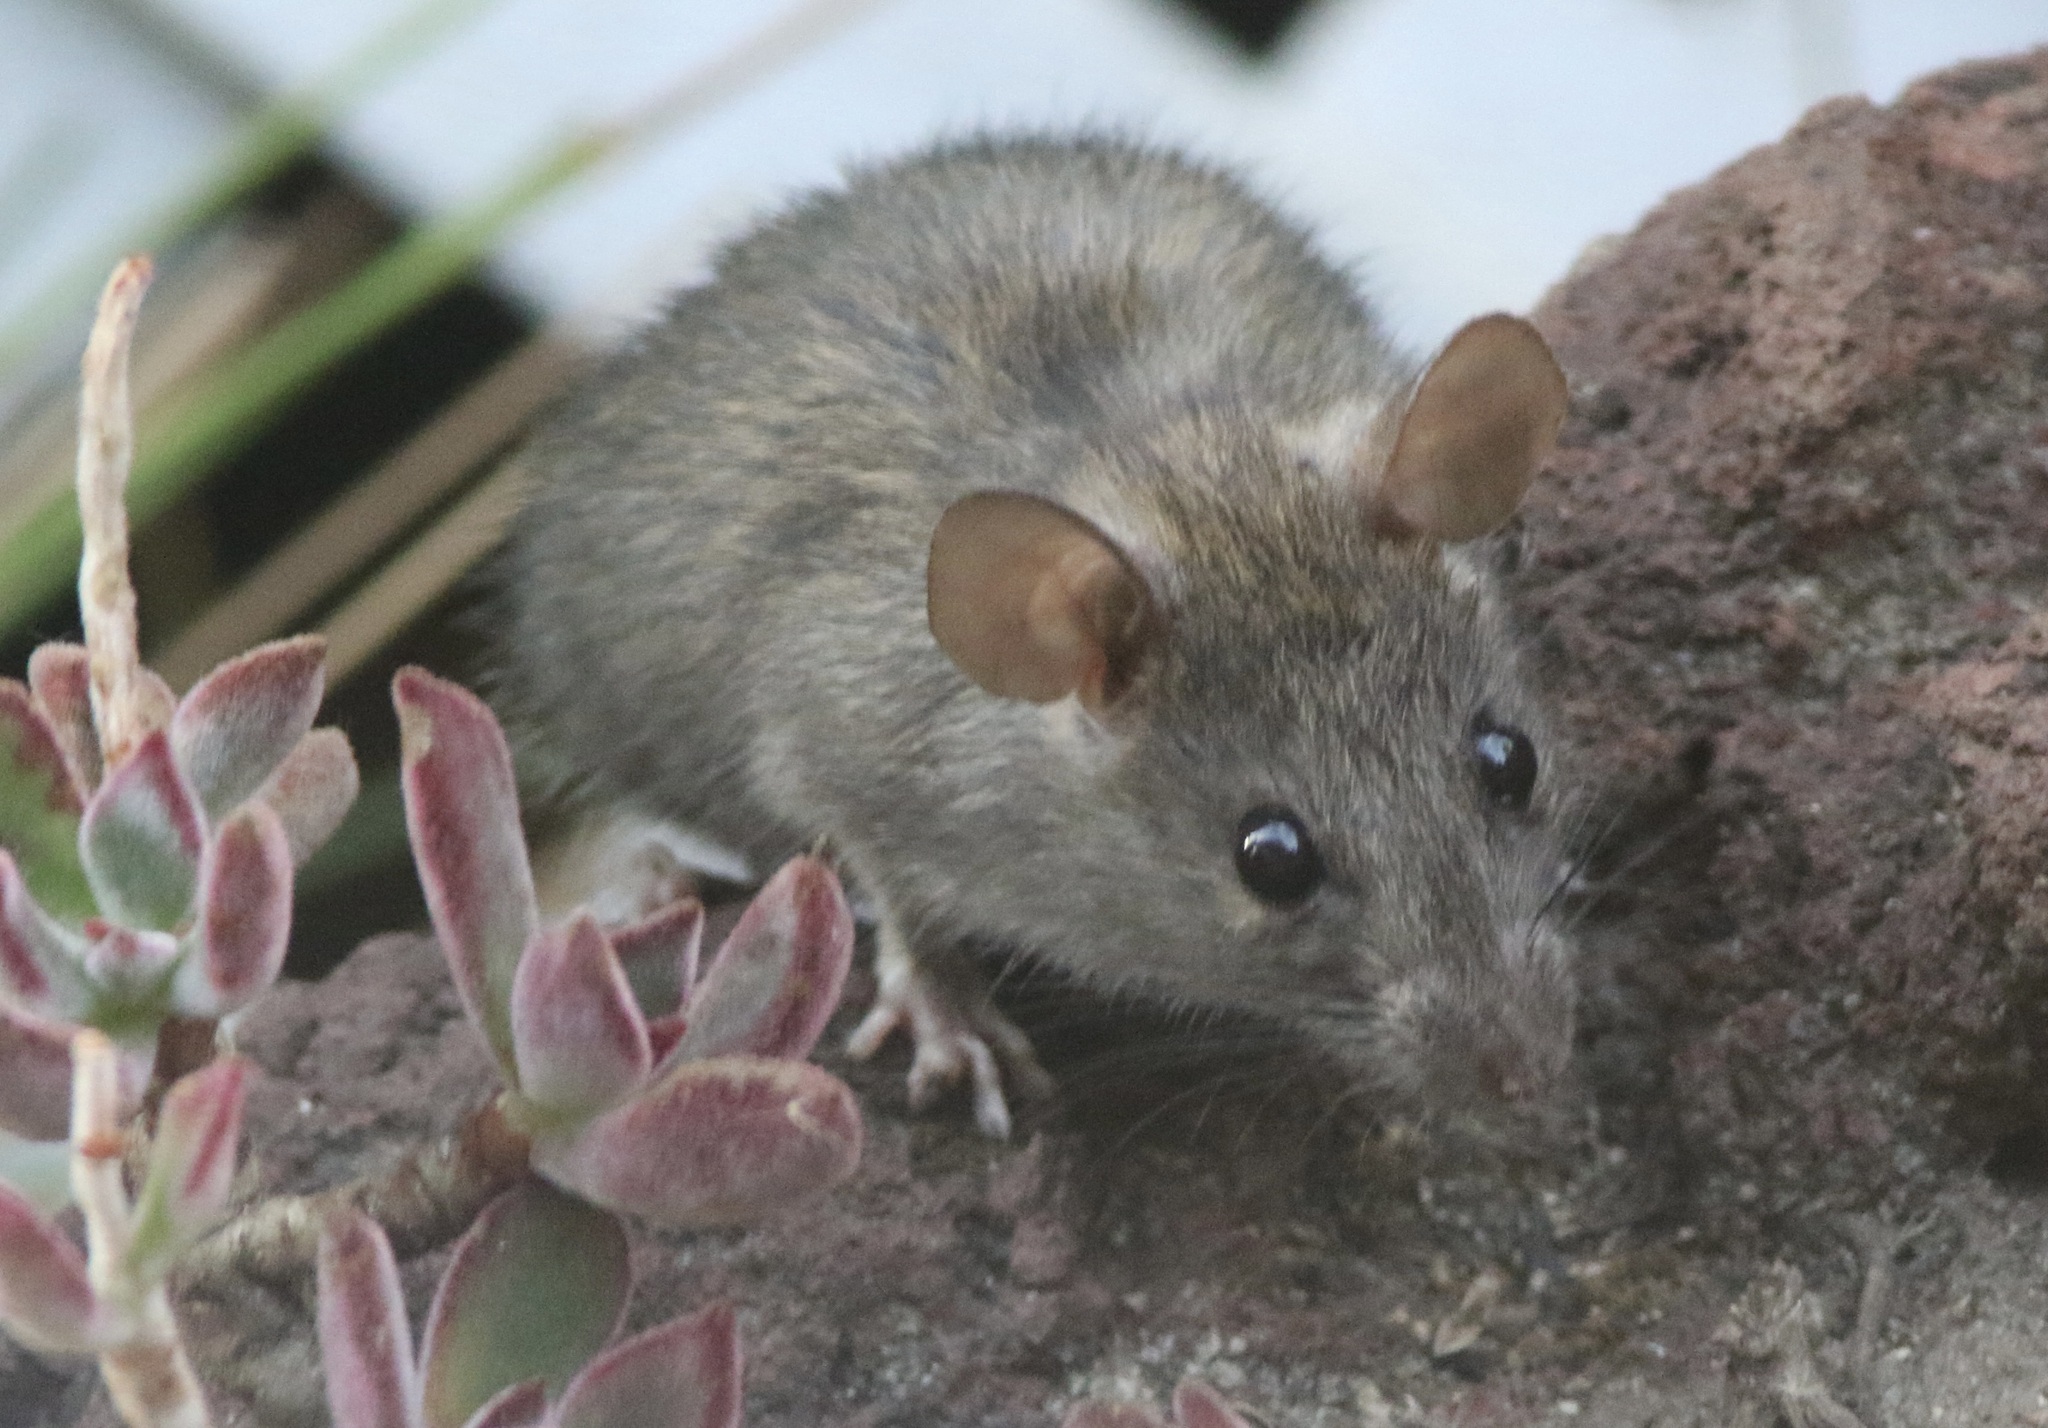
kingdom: Animalia
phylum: Chordata
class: Mammalia
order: Rodentia
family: Muridae
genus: Rattus
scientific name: Rattus rattus
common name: Black rat
